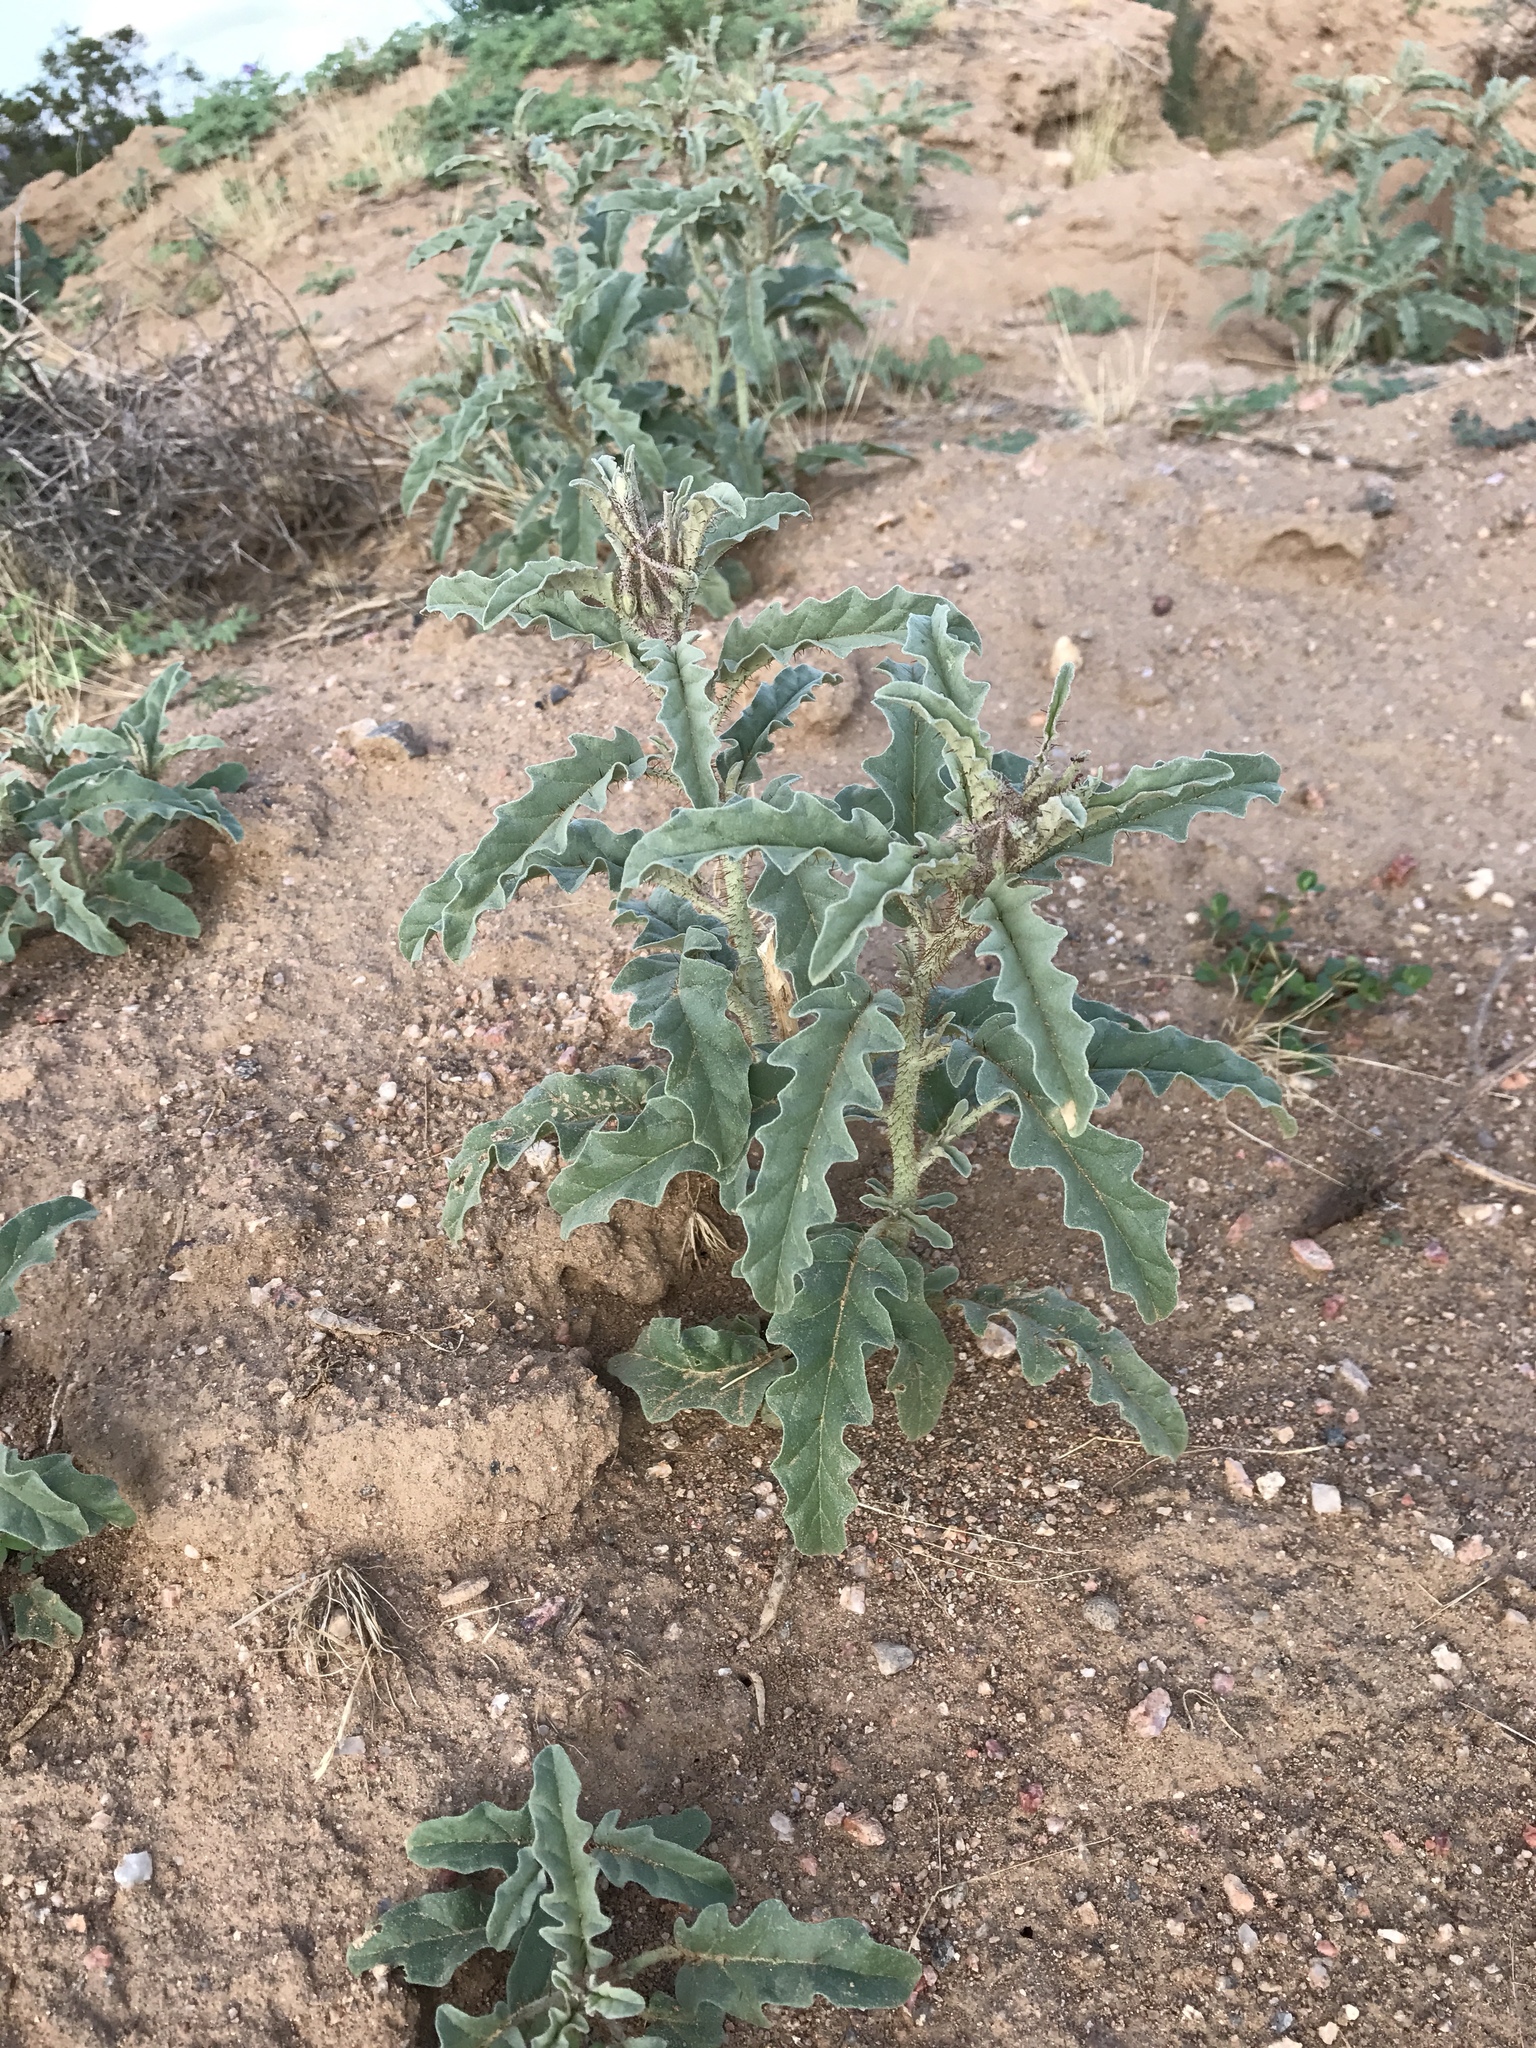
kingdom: Plantae
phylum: Tracheophyta
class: Magnoliopsida
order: Solanales
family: Solanaceae
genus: Solanum
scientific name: Solanum elaeagnifolium
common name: Silverleaf nightshade
